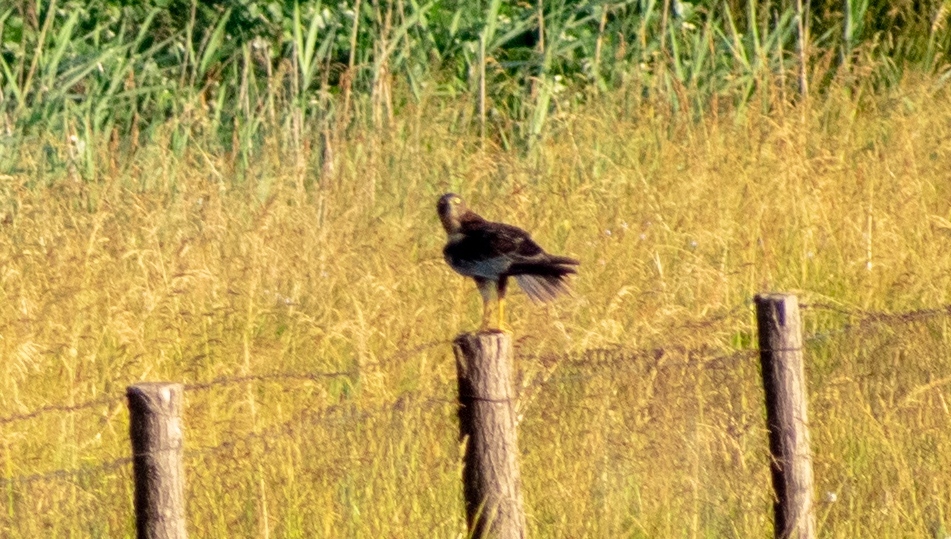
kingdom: Animalia
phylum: Chordata
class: Aves
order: Accipitriformes
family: Accipitridae
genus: Circus
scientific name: Circus aeruginosus
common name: Western marsh harrier
